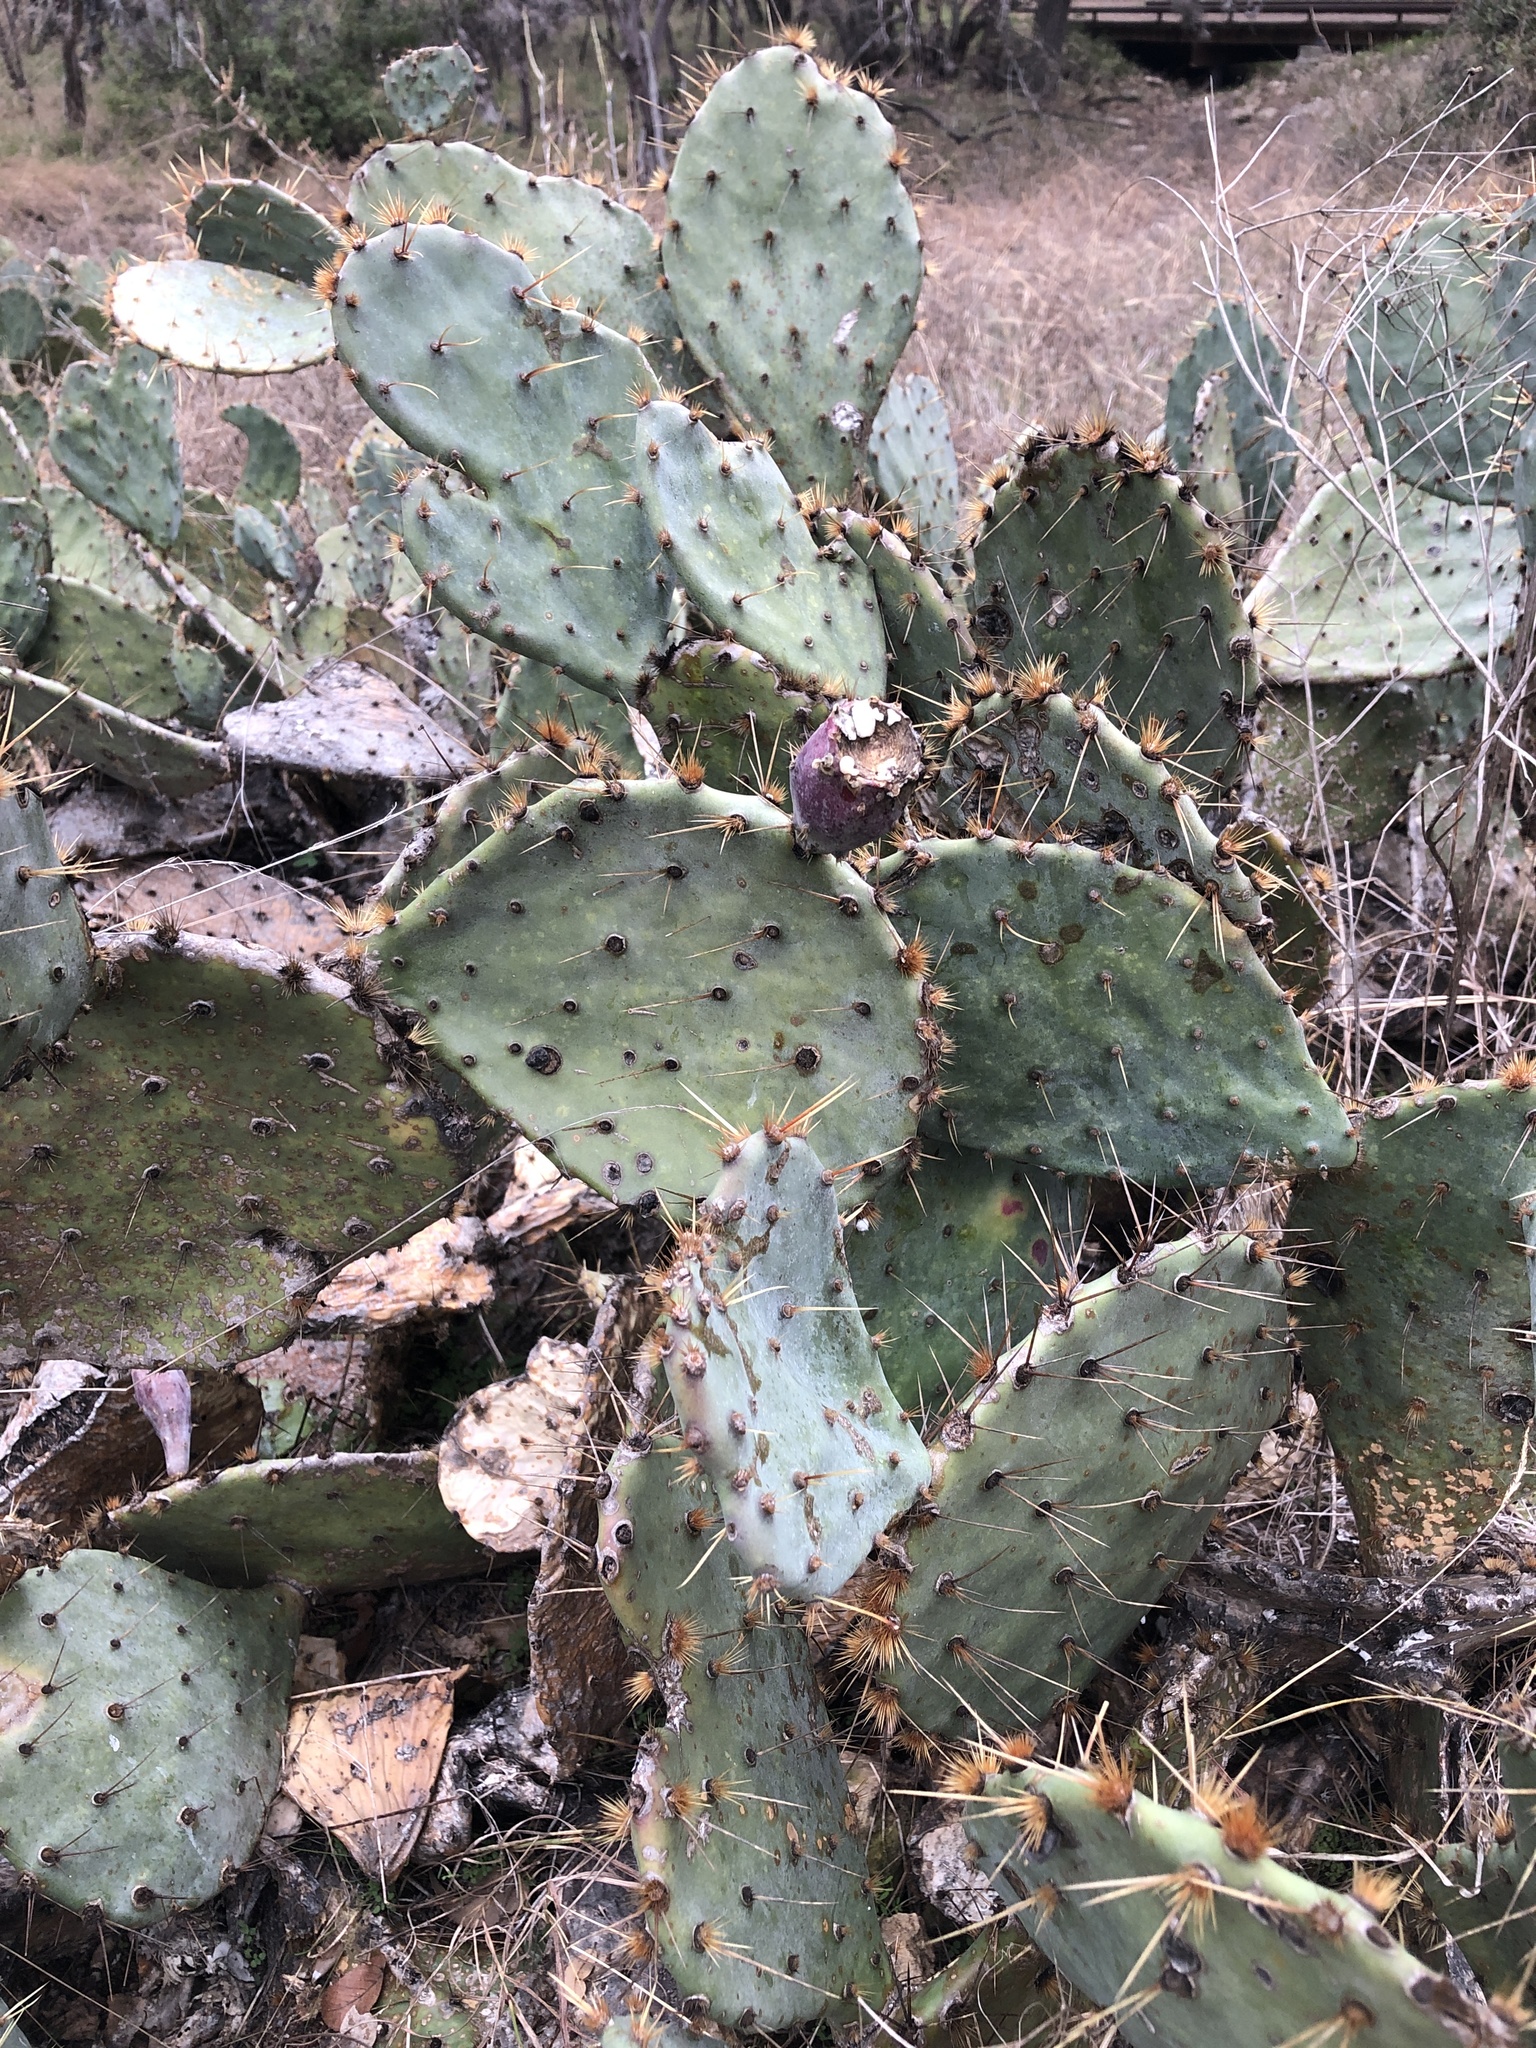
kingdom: Plantae
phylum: Tracheophyta
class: Magnoliopsida
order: Caryophyllales
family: Cactaceae
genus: Opuntia
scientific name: Opuntia engelmannii
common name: Cactus-apple
